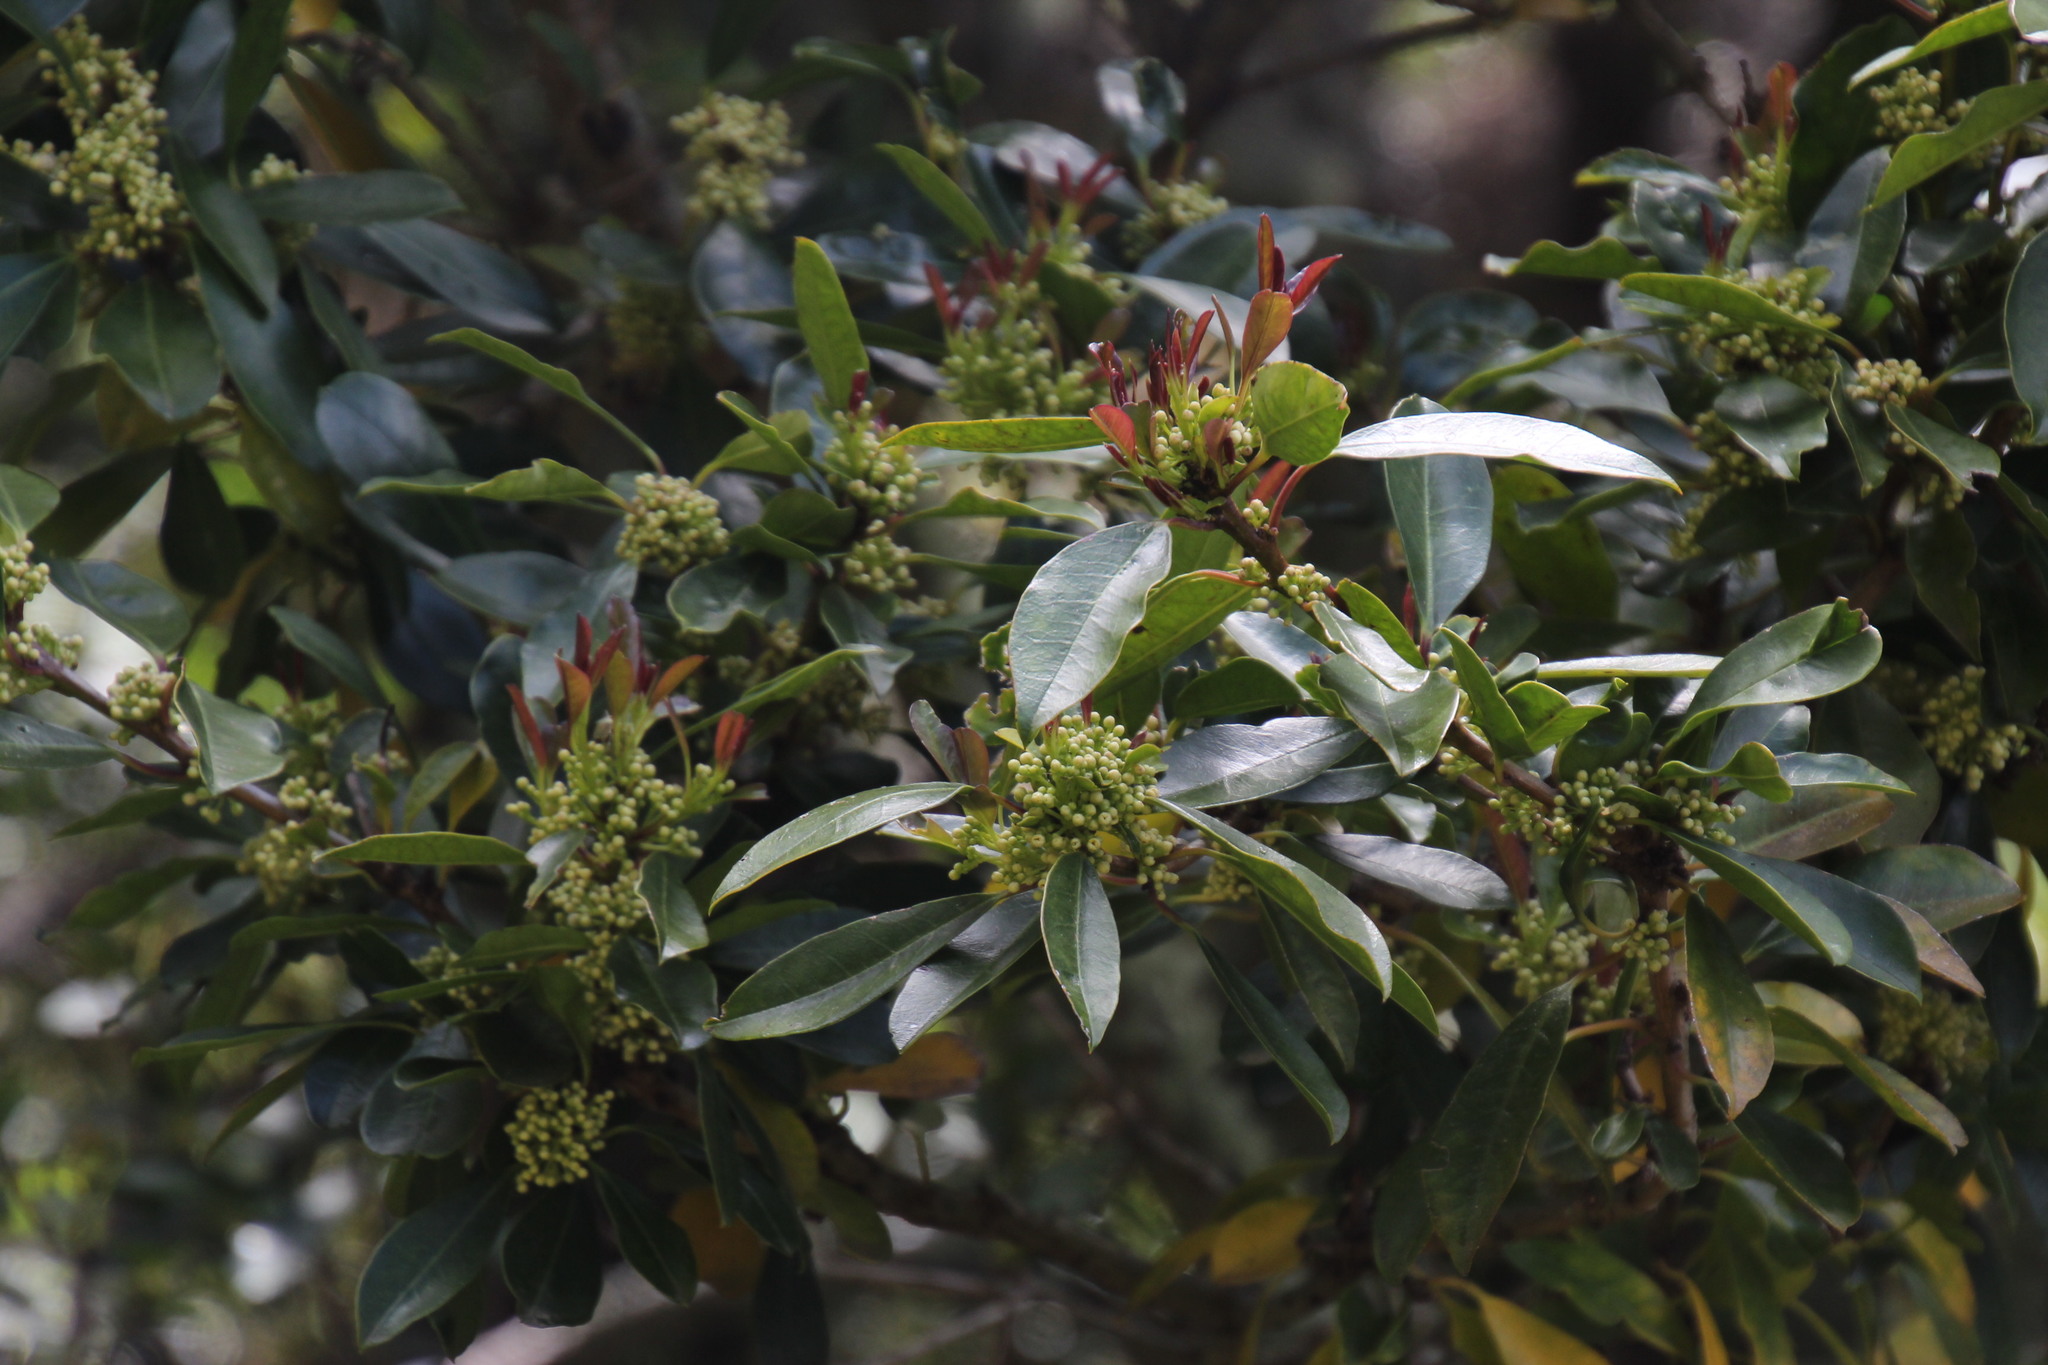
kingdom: Plantae
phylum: Tracheophyta
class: Magnoliopsida
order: Aquifoliales
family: Aquifoliaceae
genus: Ilex
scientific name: Ilex mitis
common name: African holly
